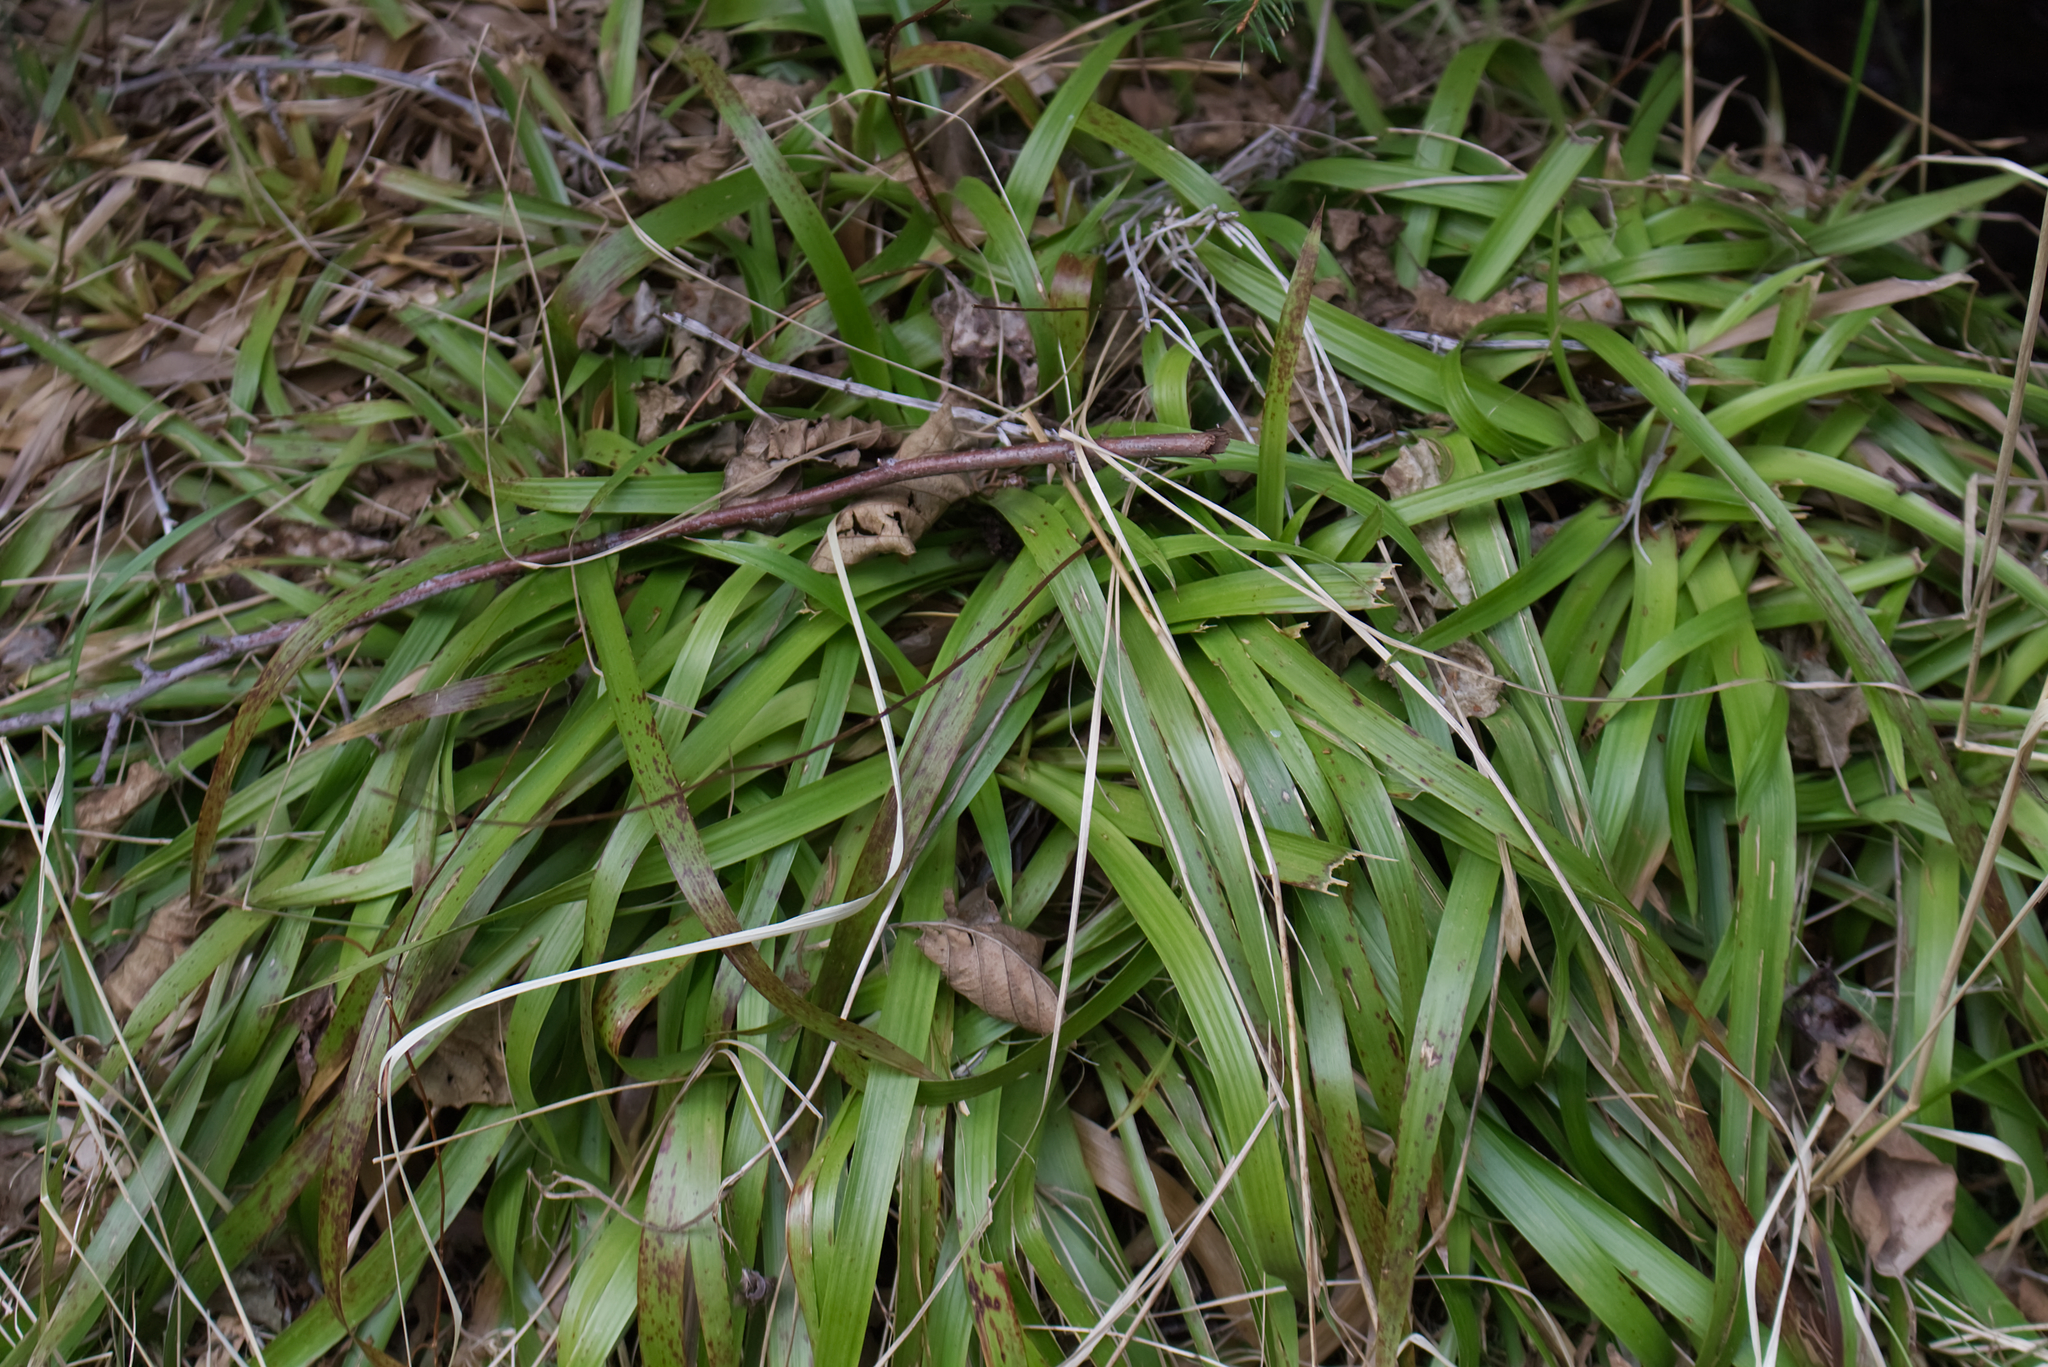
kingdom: Plantae
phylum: Tracheophyta
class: Liliopsida
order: Poales
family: Juncaceae
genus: Luzula
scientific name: Luzula sylvatica
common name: Great wood-rush
